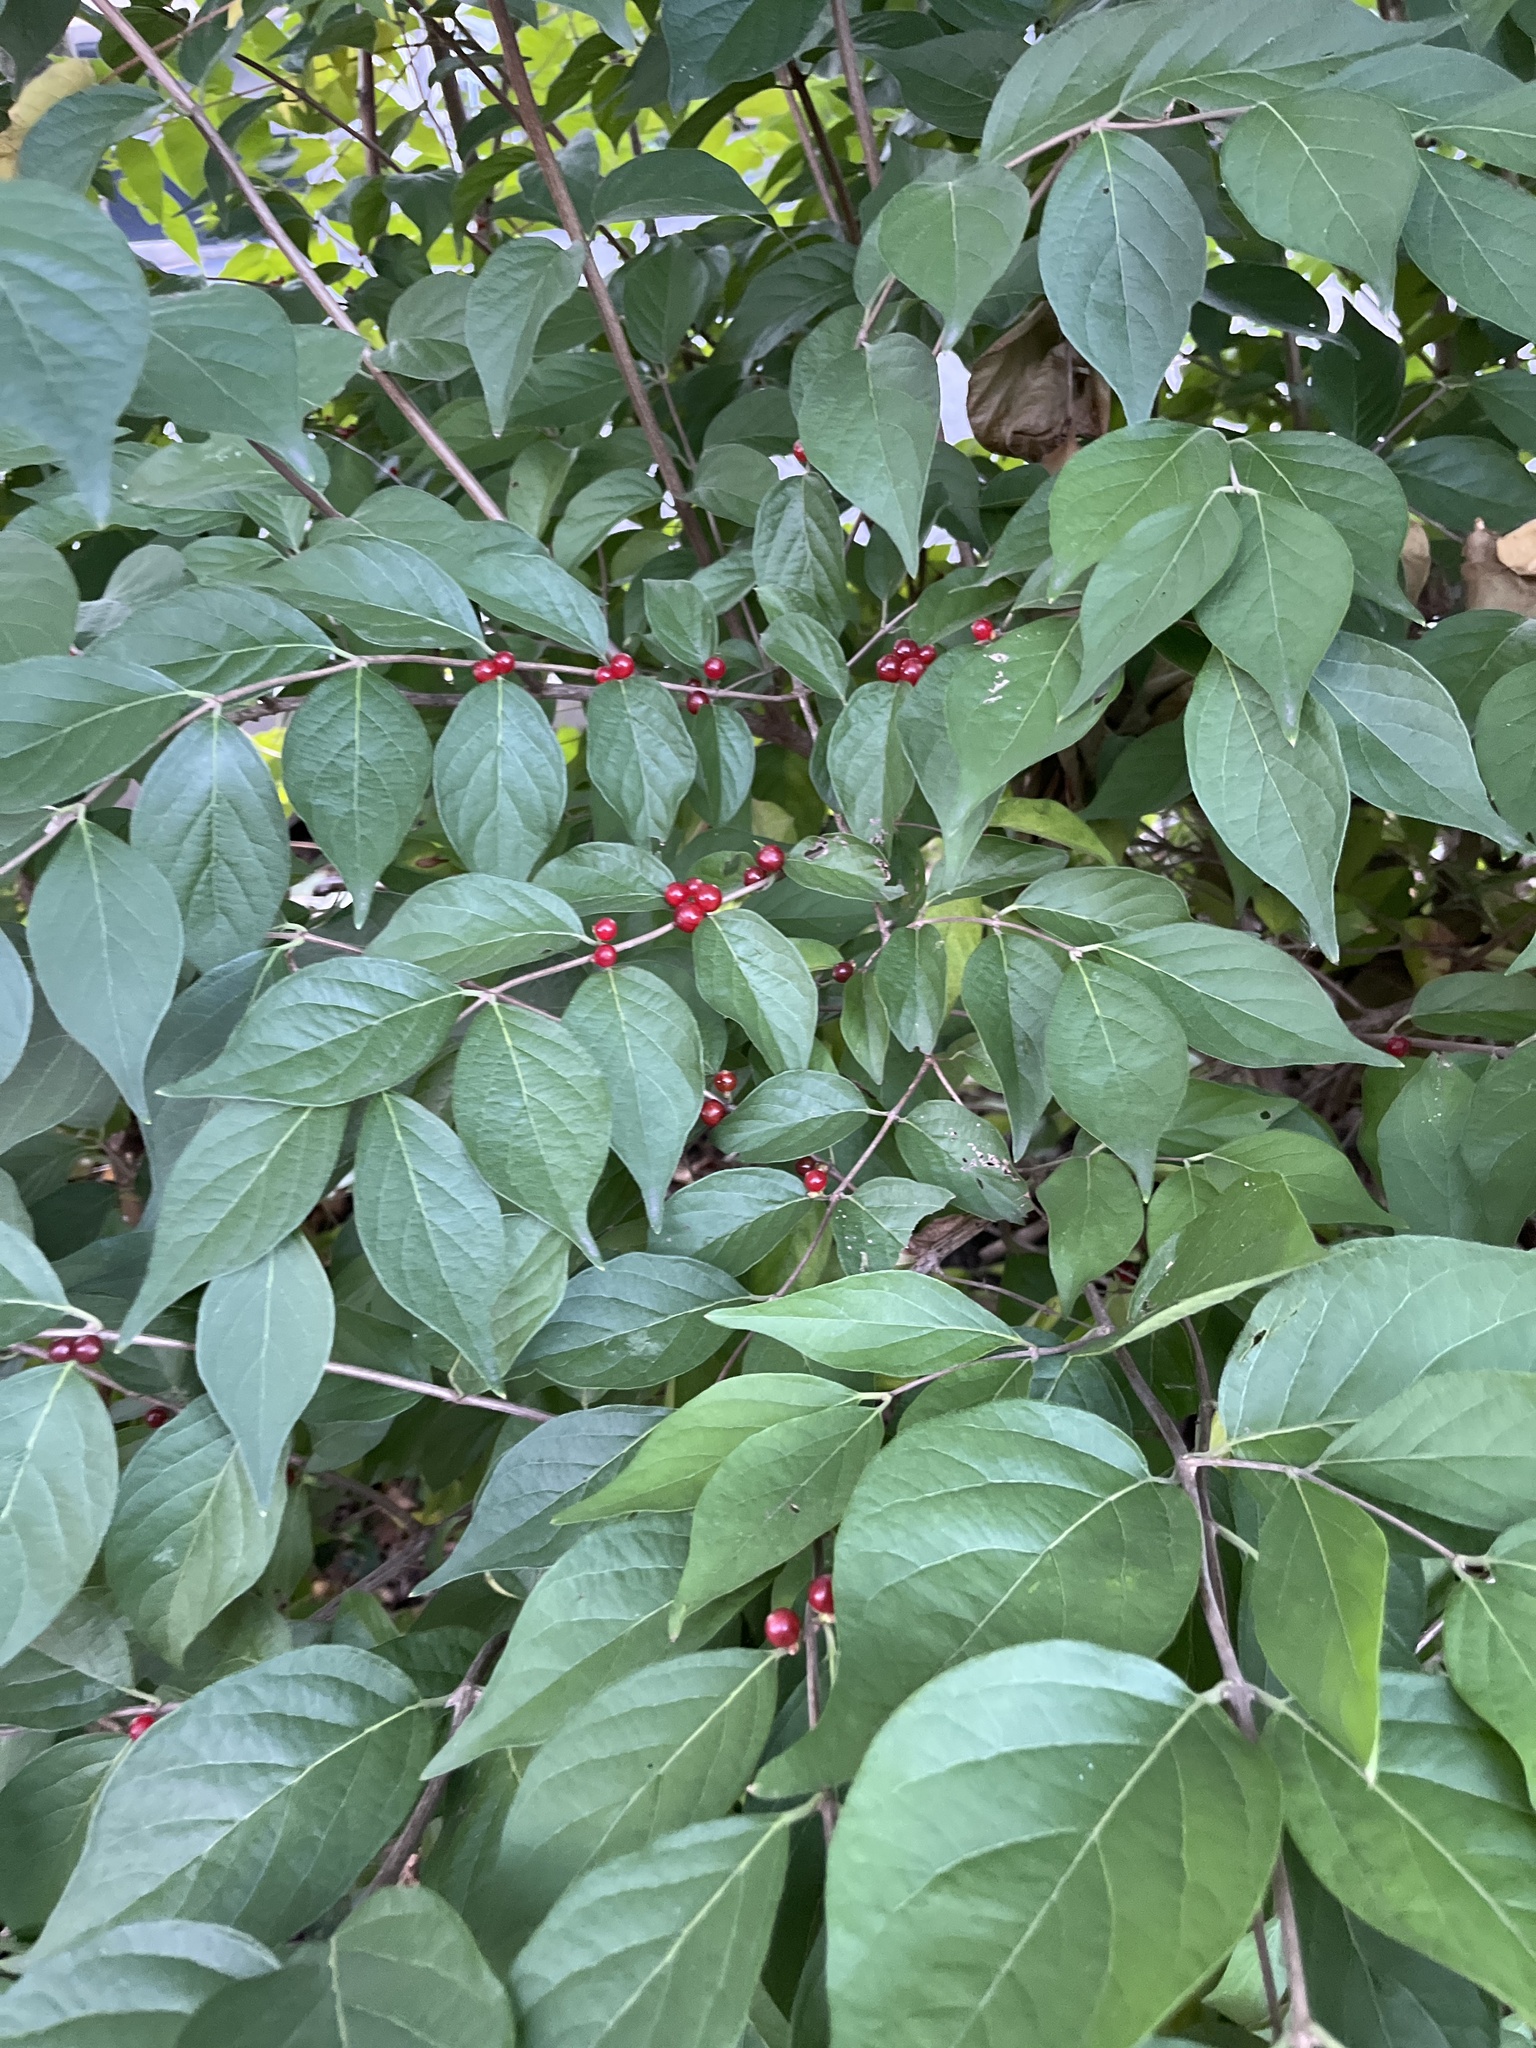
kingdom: Plantae
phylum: Tracheophyta
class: Magnoliopsida
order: Dipsacales
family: Caprifoliaceae
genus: Lonicera
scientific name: Lonicera maackii
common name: Amur honeysuckle
